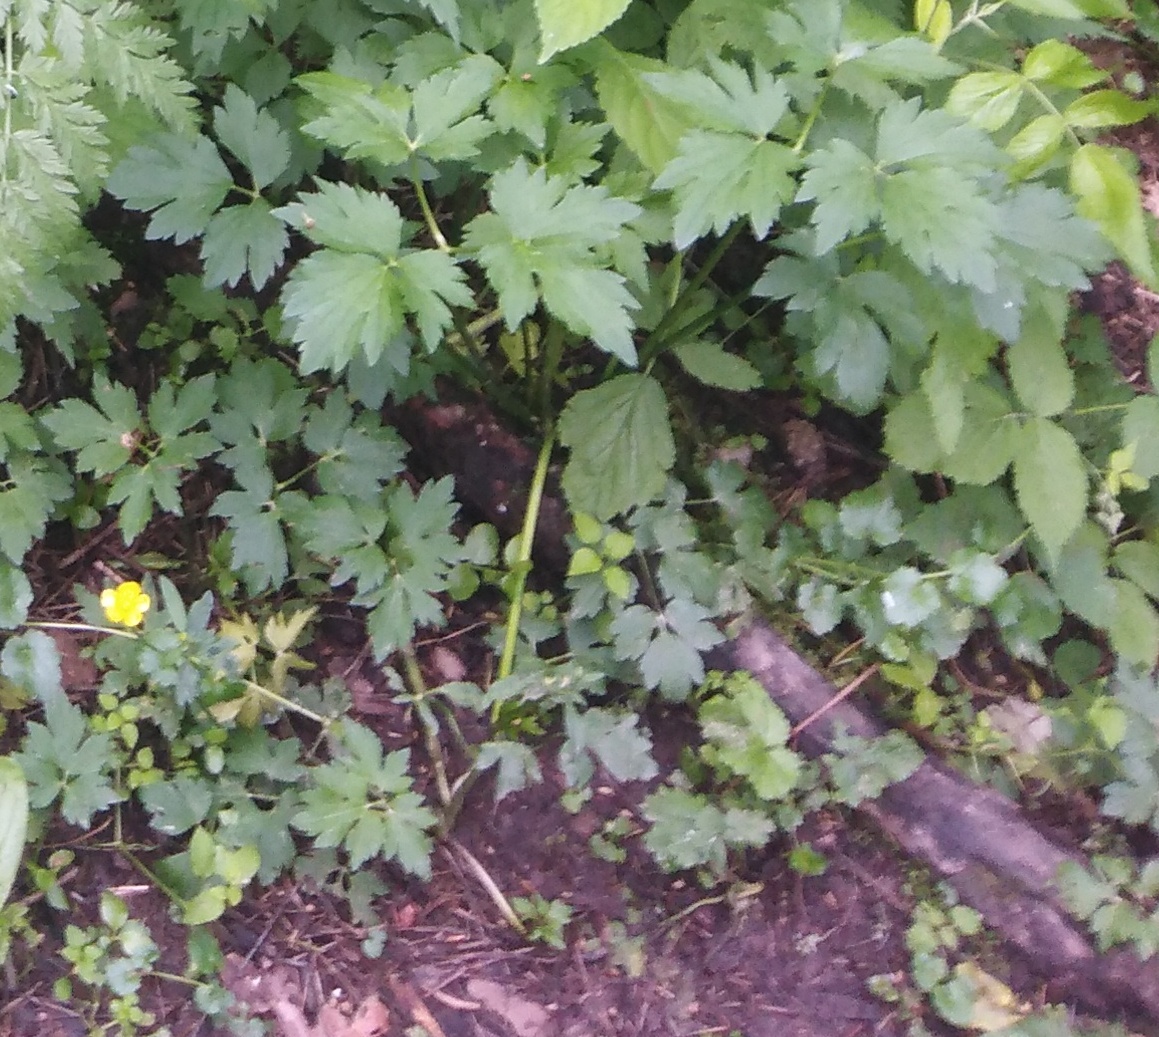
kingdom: Plantae
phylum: Tracheophyta
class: Magnoliopsida
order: Ranunculales
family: Ranunculaceae
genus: Ranunculus
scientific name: Ranunculus repens
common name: Creeping buttercup
